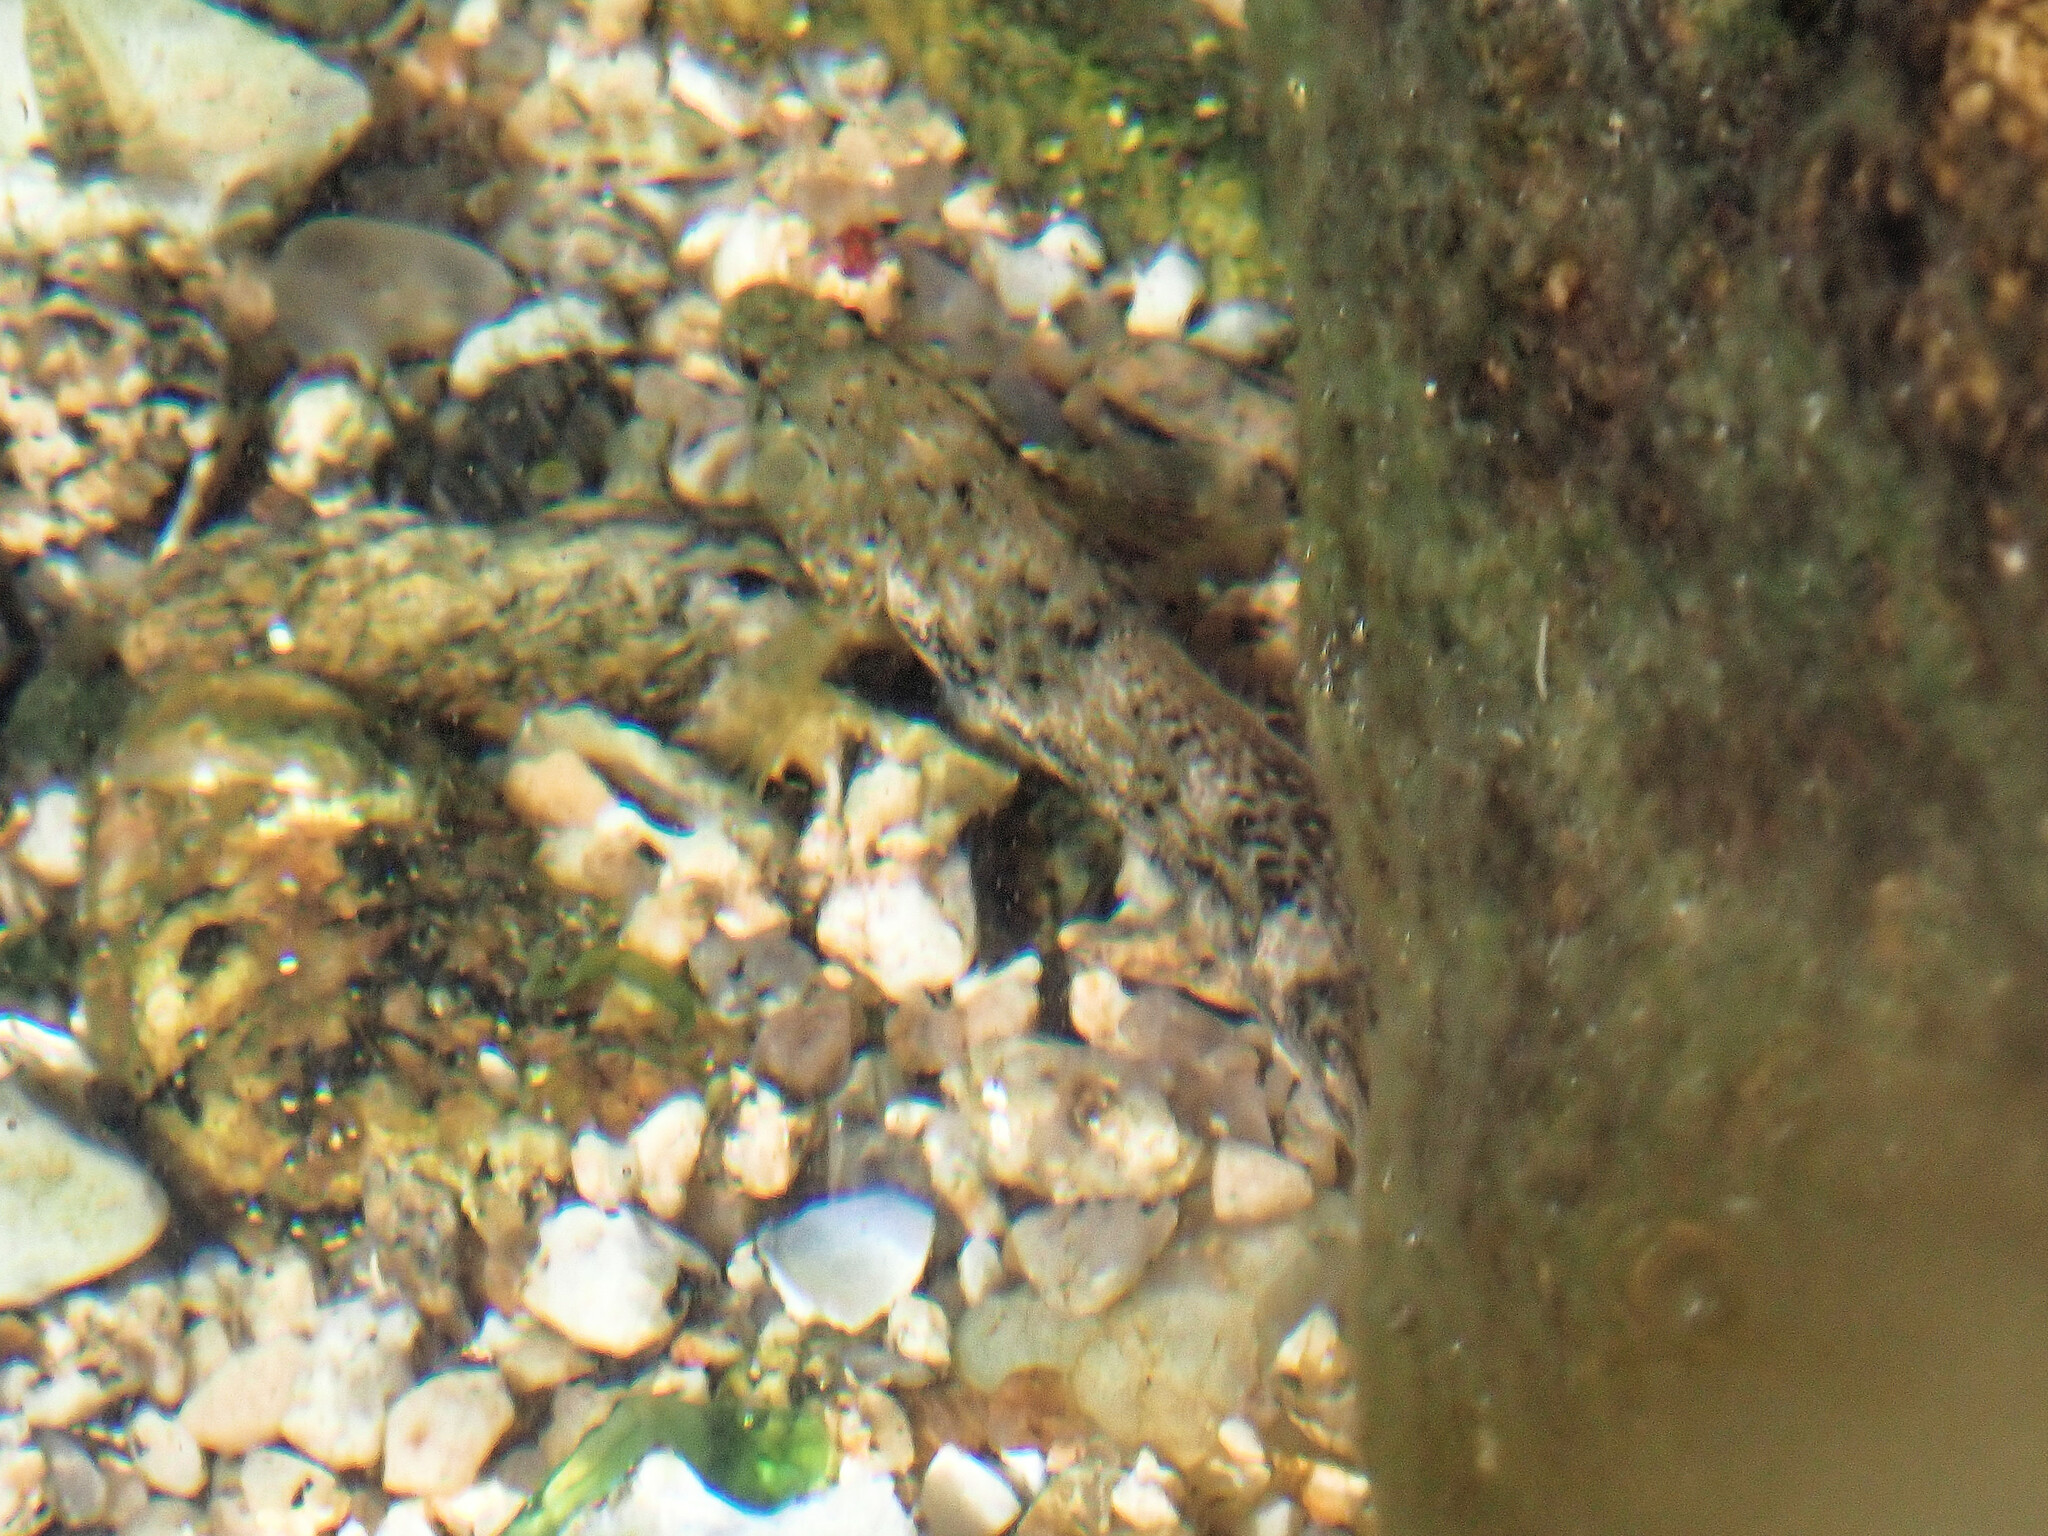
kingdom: Animalia
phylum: Chordata
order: Perciformes
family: Gobiidae
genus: Gobius
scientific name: Gobius cobitis
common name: Giant goby
